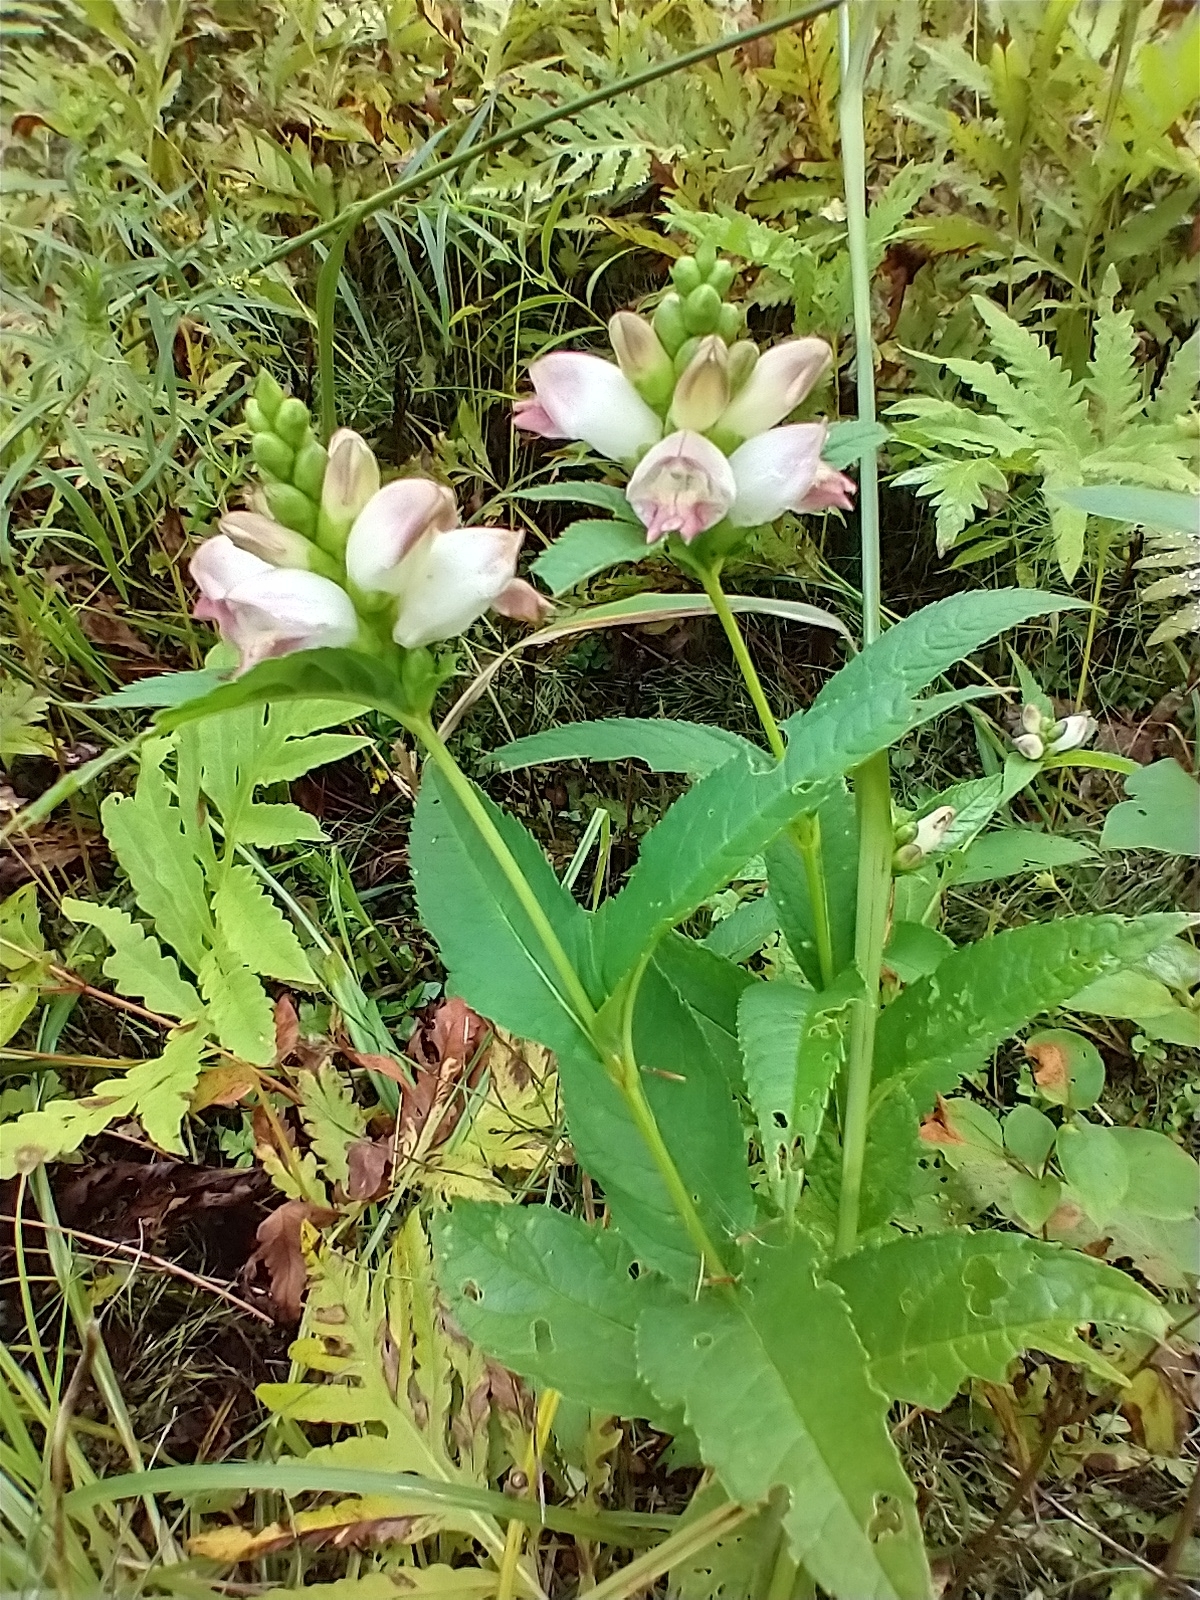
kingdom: Plantae
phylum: Tracheophyta
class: Magnoliopsida
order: Lamiales
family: Plantaginaceae
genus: Chelone
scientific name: Chelone glabra
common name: Snakehead
